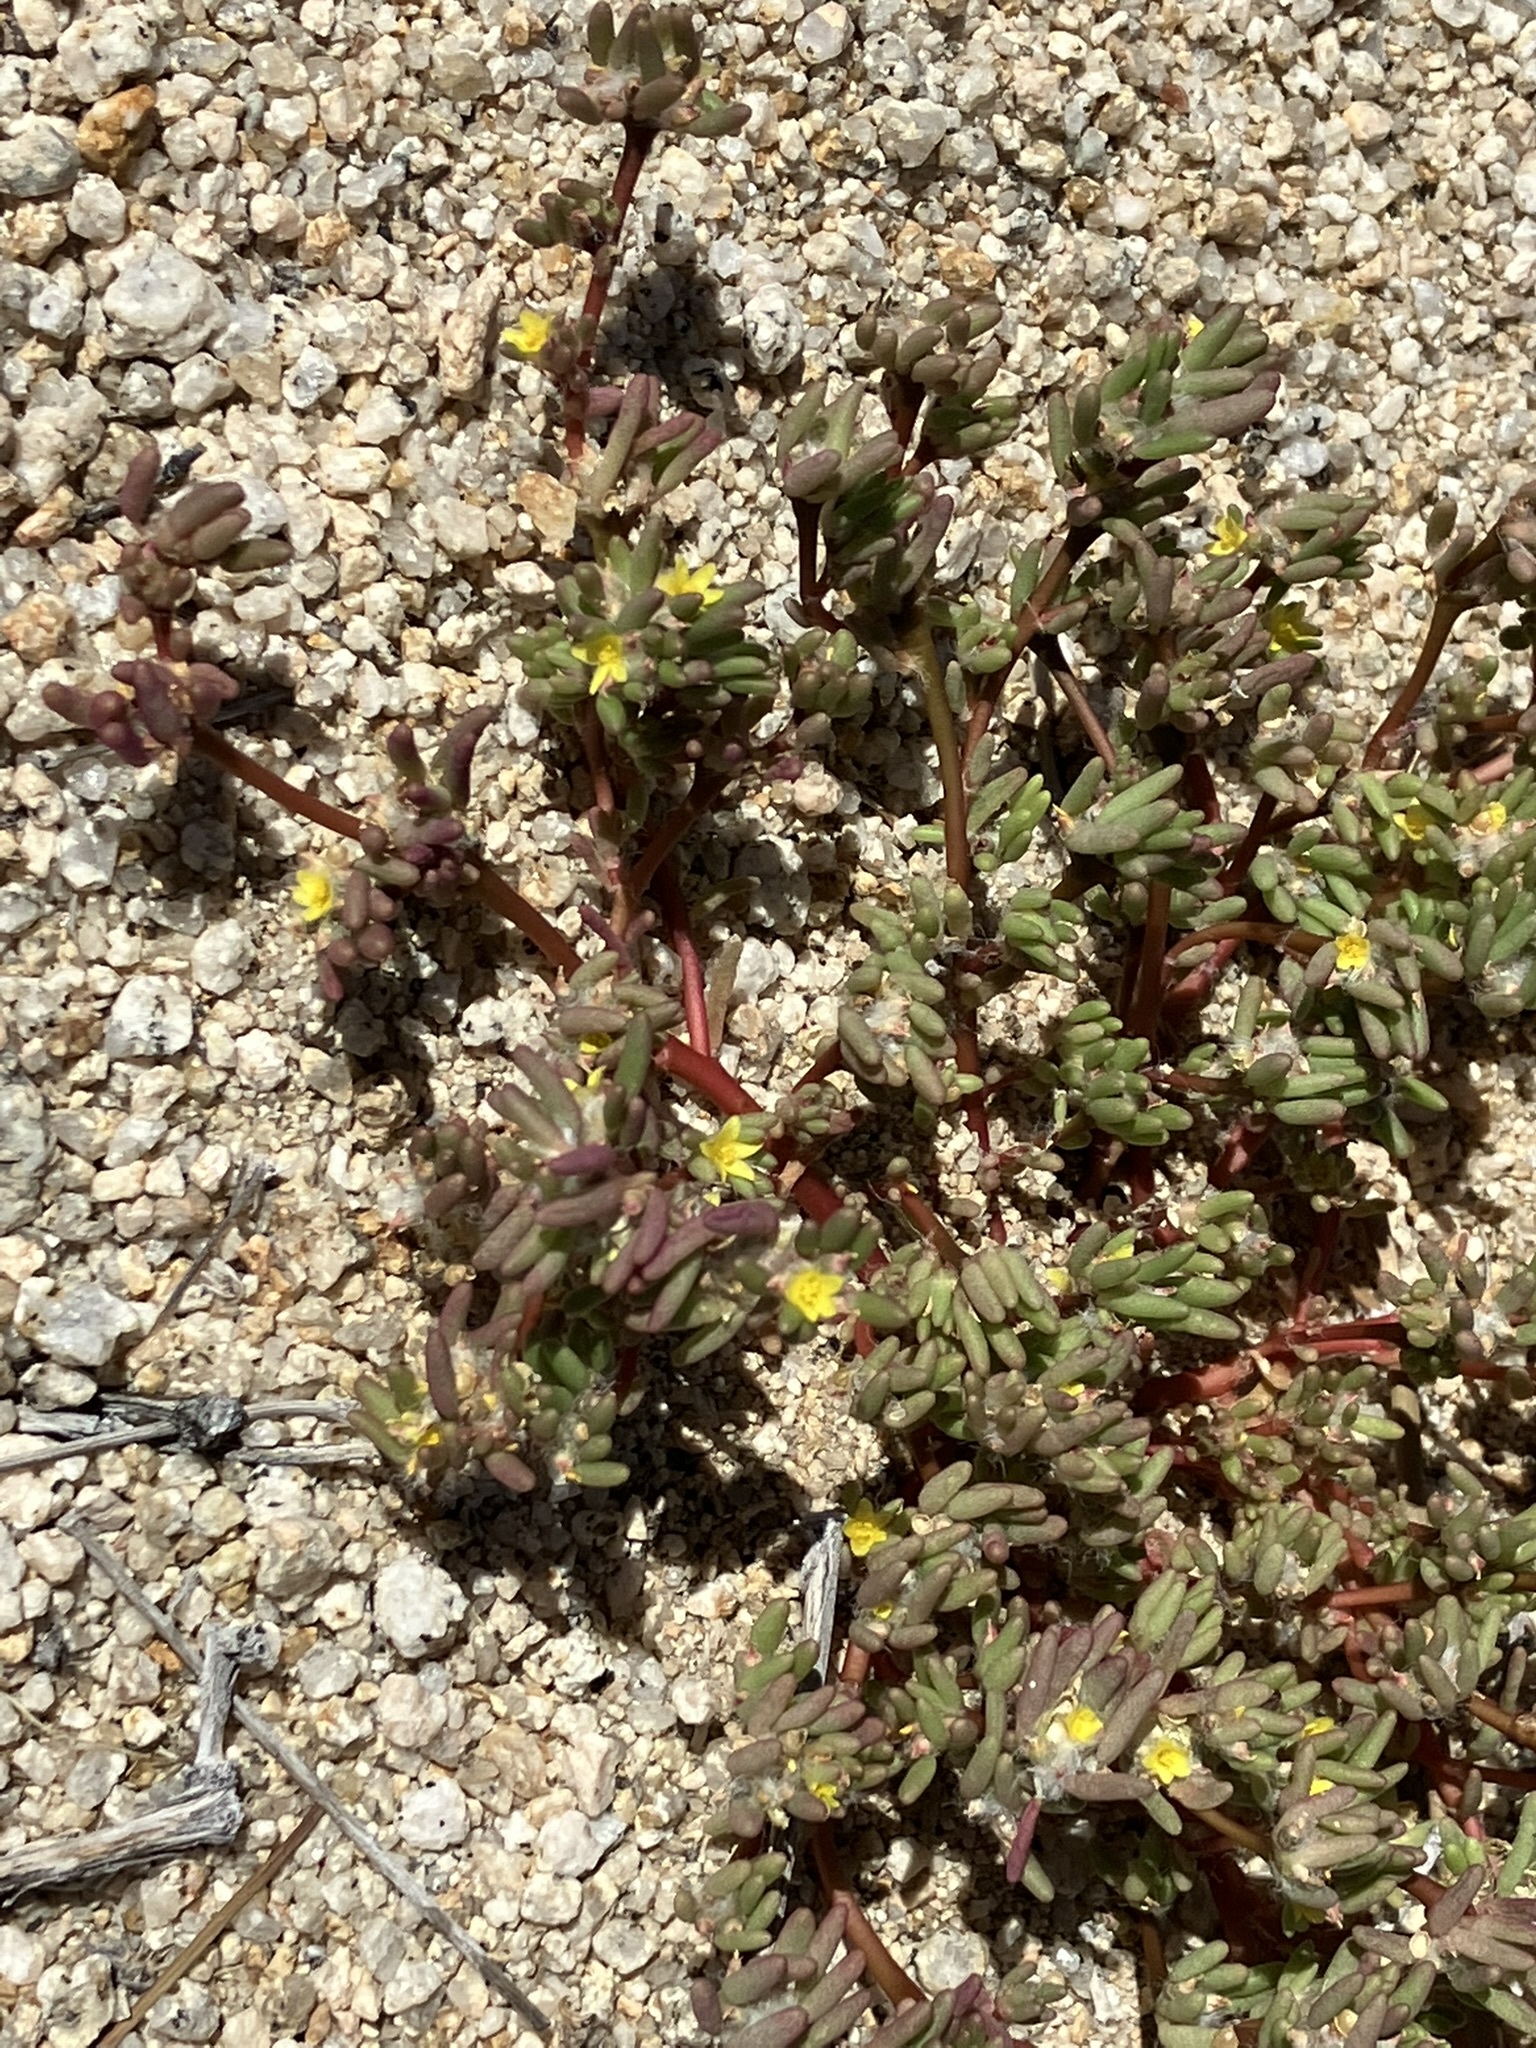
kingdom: Plantae
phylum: Tracheophyta
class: Magnoliopsida
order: Caryophyllales
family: Portulacaceae
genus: Portulaca
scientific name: Portulaca halimoides
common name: Silk cotton purslane
